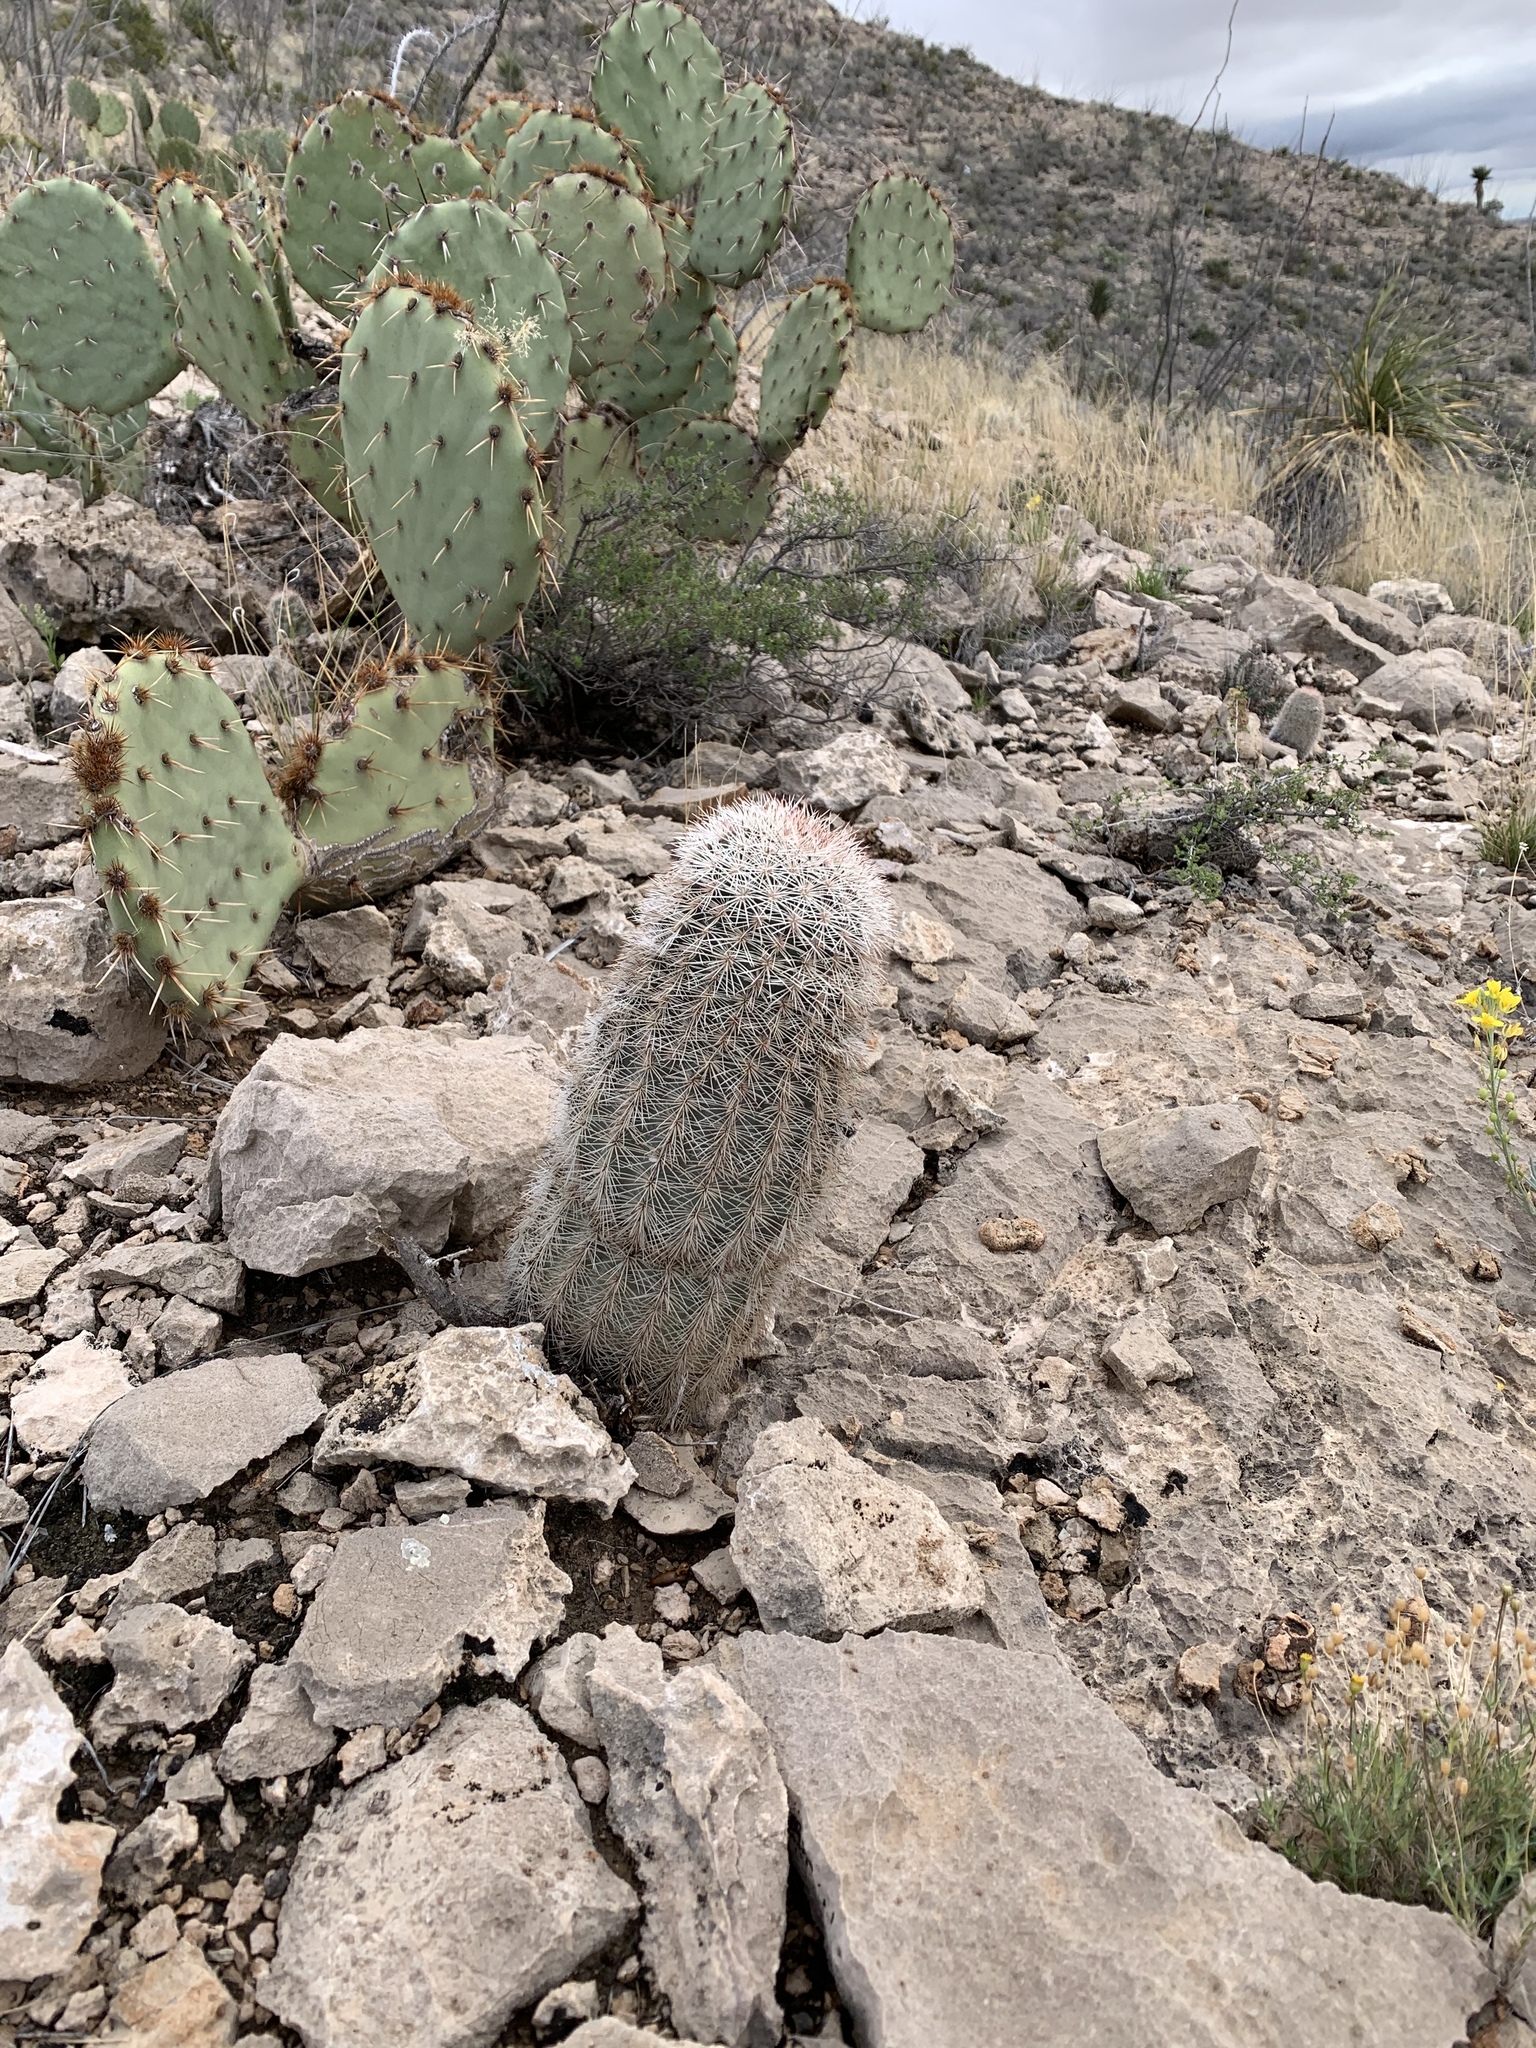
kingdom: Plantae
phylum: Tracheophyta
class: Magnoliopsida
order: Caryophyllales
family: Cactaceae
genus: Echinocereus
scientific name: Echinocereus dasyacanthus
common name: Spiny hedgehog cactus
